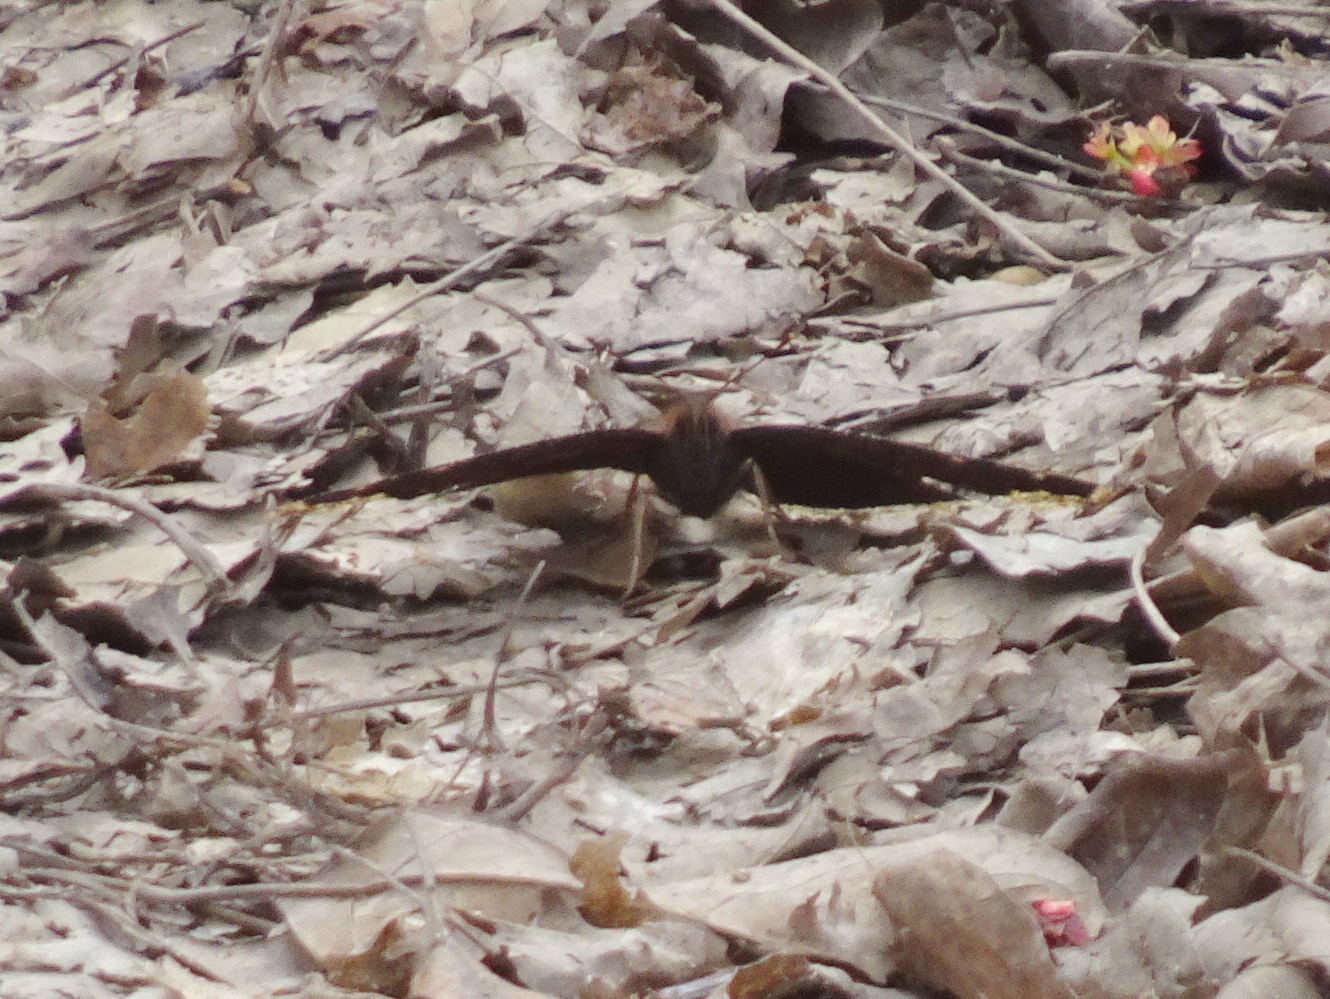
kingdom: Animalia
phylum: Arthropoda
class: Insecta
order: Lepidoptera
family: Nymphalidae
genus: Nymphalis
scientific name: Nymphalis antiopa
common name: Camberwell beauty
